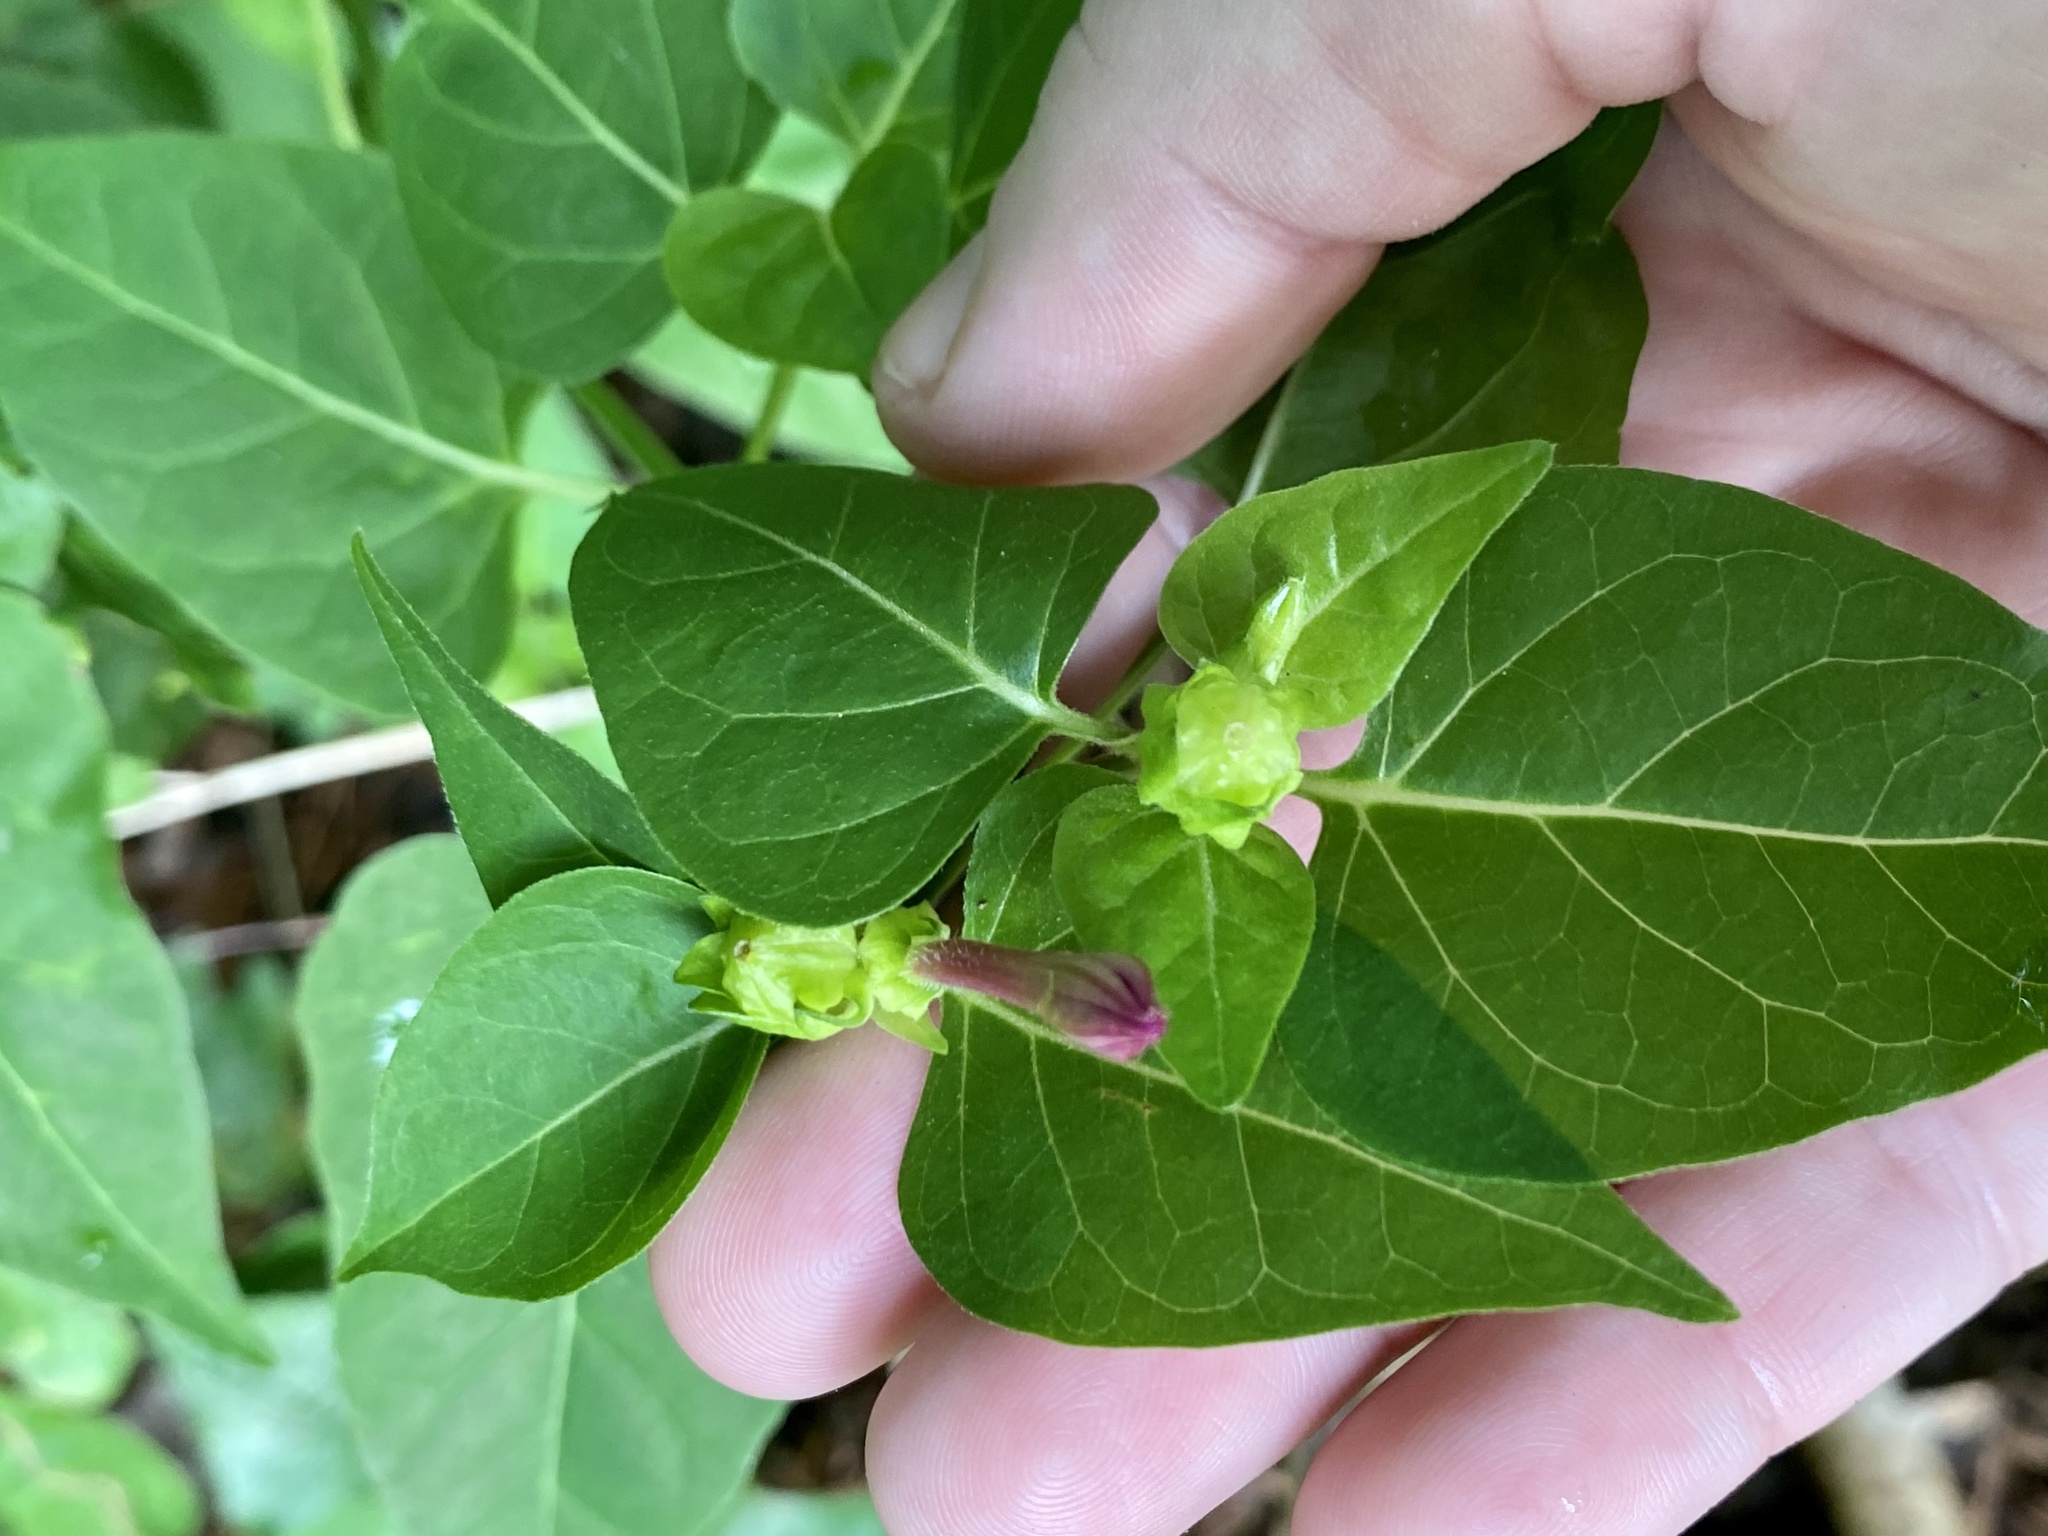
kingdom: Plantae
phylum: Tracheophyta
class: Magnoliopsida
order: Caryophyllales
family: Nyctaginaceae
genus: Mirabilis
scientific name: Mirabilis jalapa
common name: Marvel-of-peru
